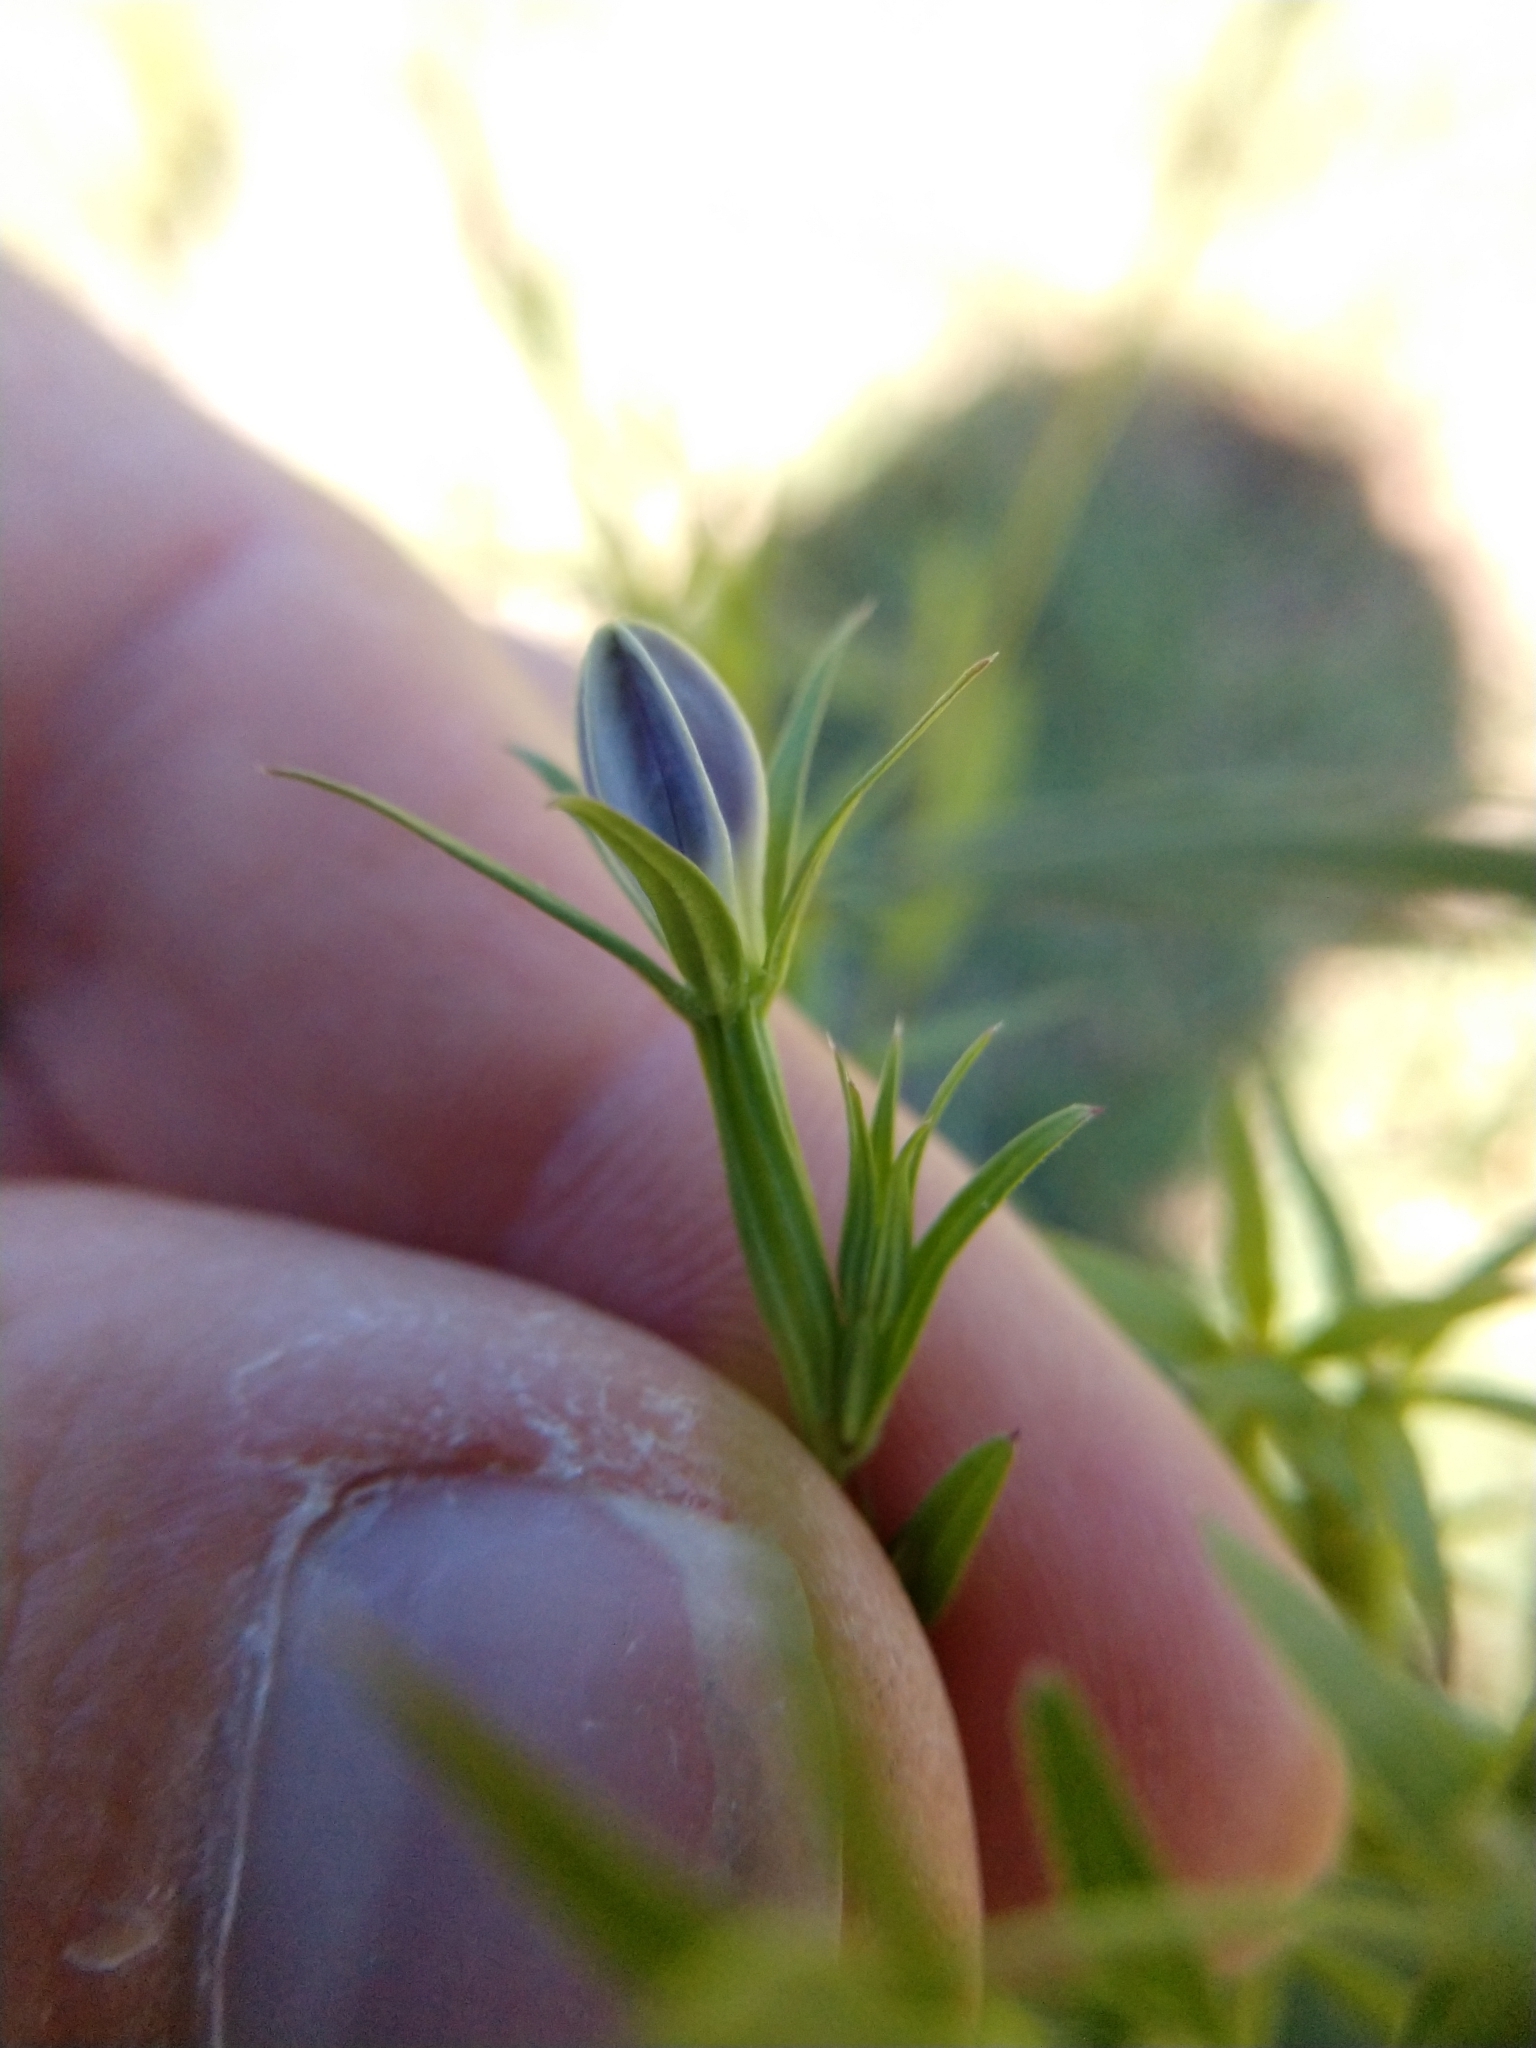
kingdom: Plantae
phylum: Tracheophyta
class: Magnoliopsida
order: Asterales
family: Campanulaceae
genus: Triodanis
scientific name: Triodanis coloradoensis
